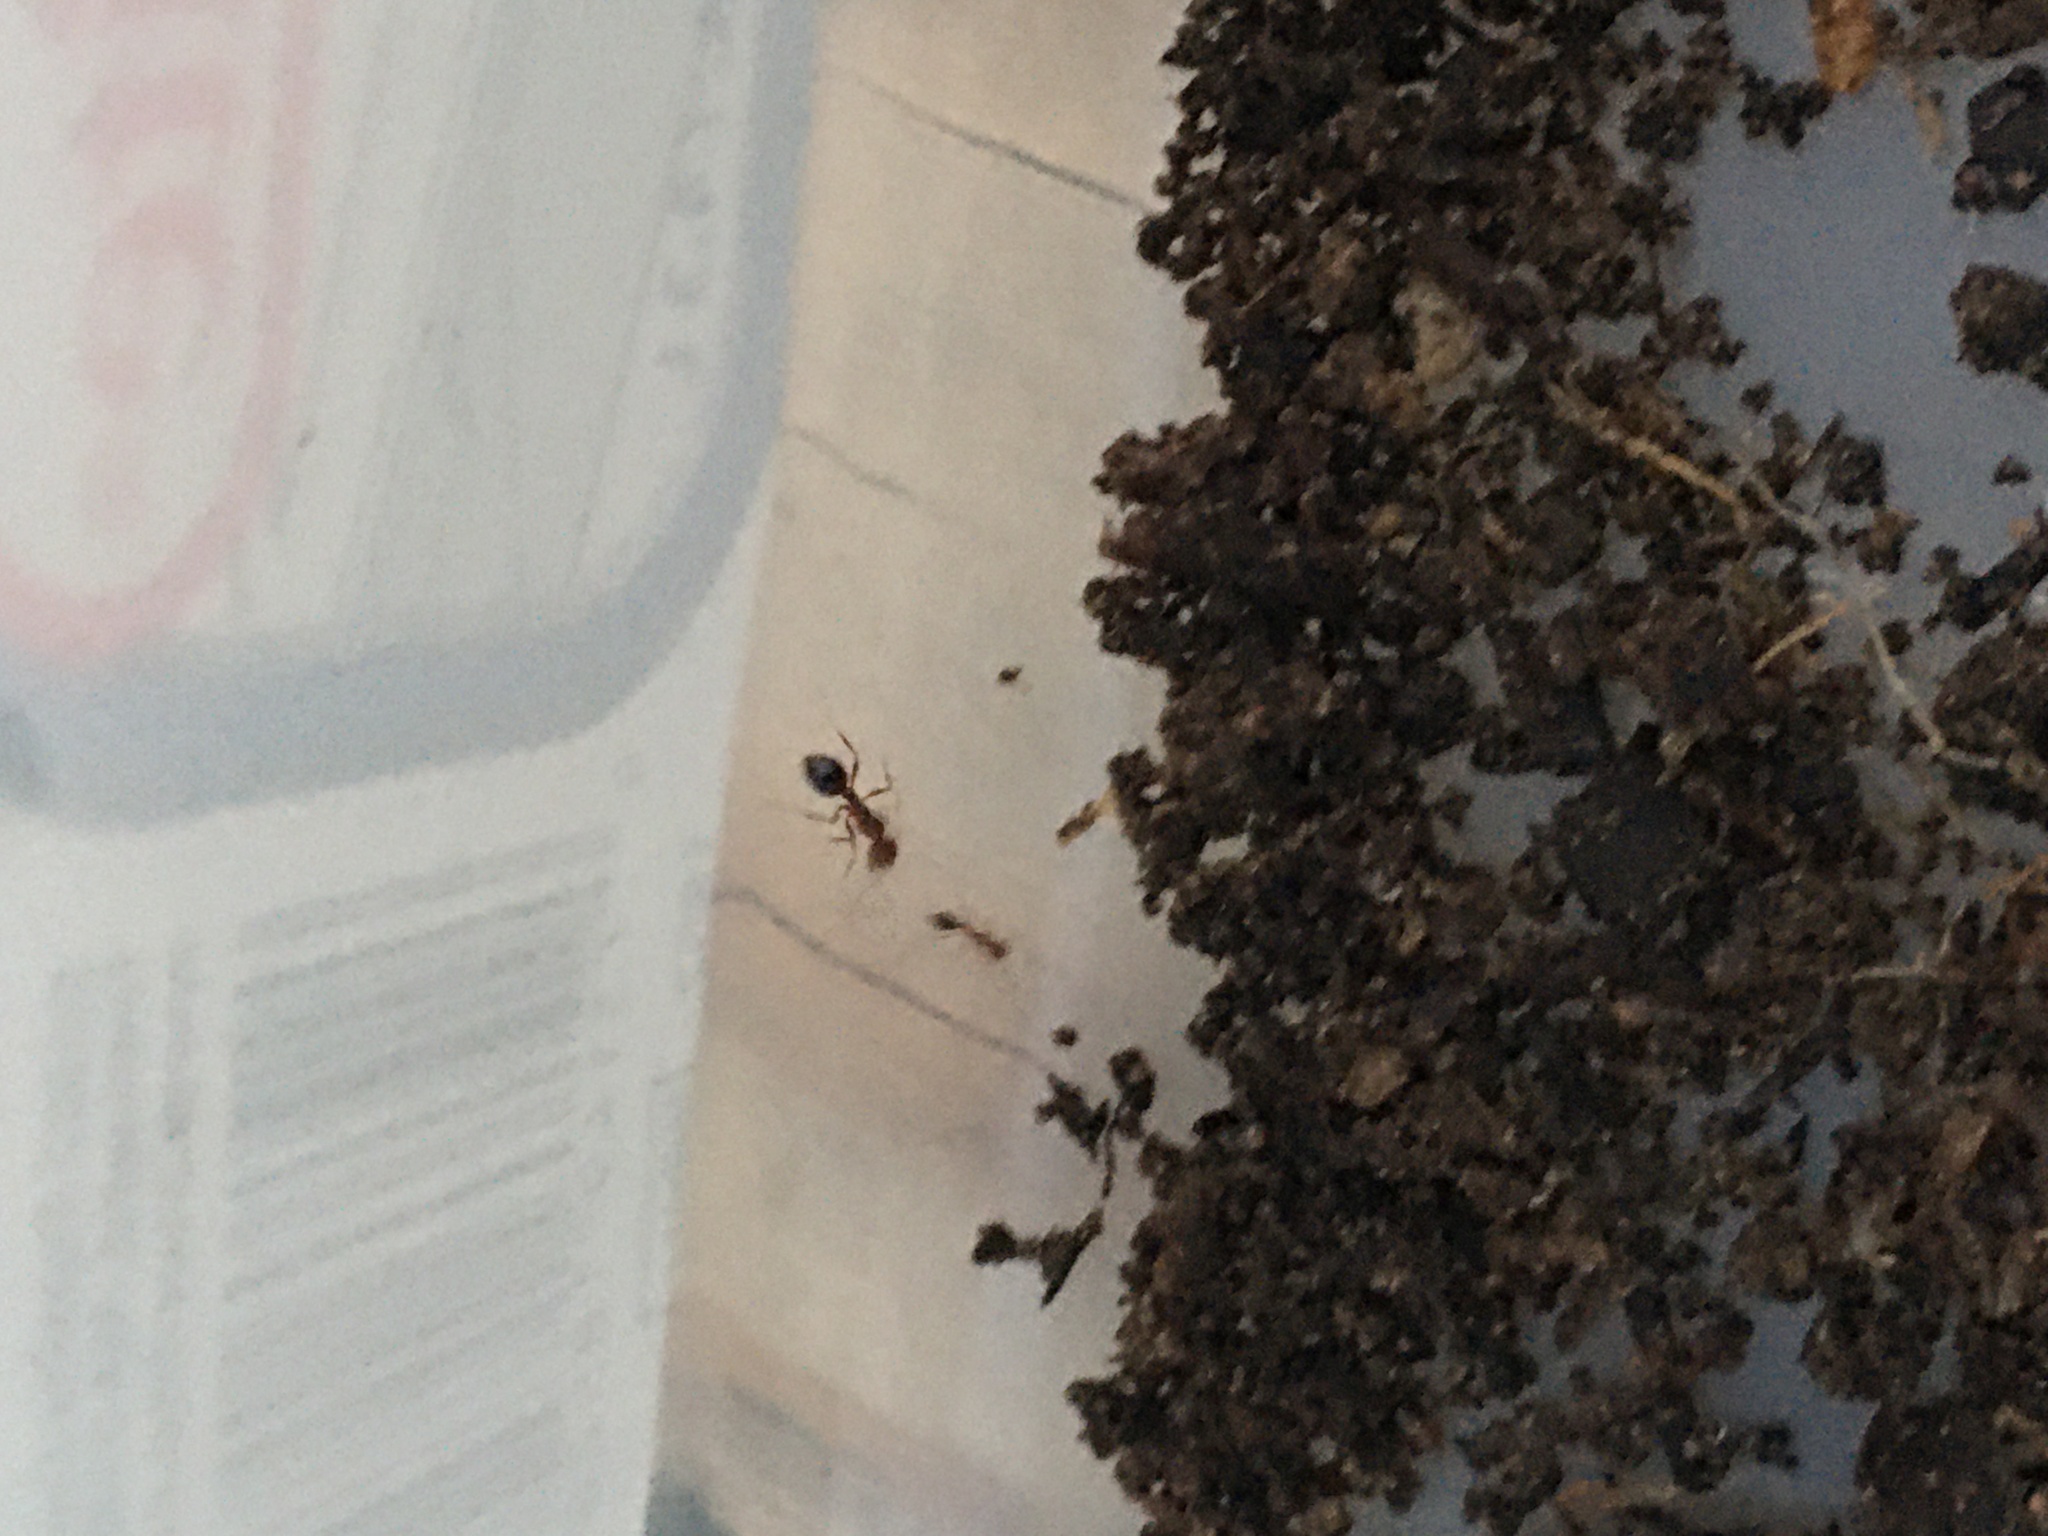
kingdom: Animalia
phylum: Arthropoda
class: Insecta
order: Hymenoptera
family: Formicidae
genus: Solenopsis
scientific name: Solenopsis invicta
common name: Red imported fire ant
